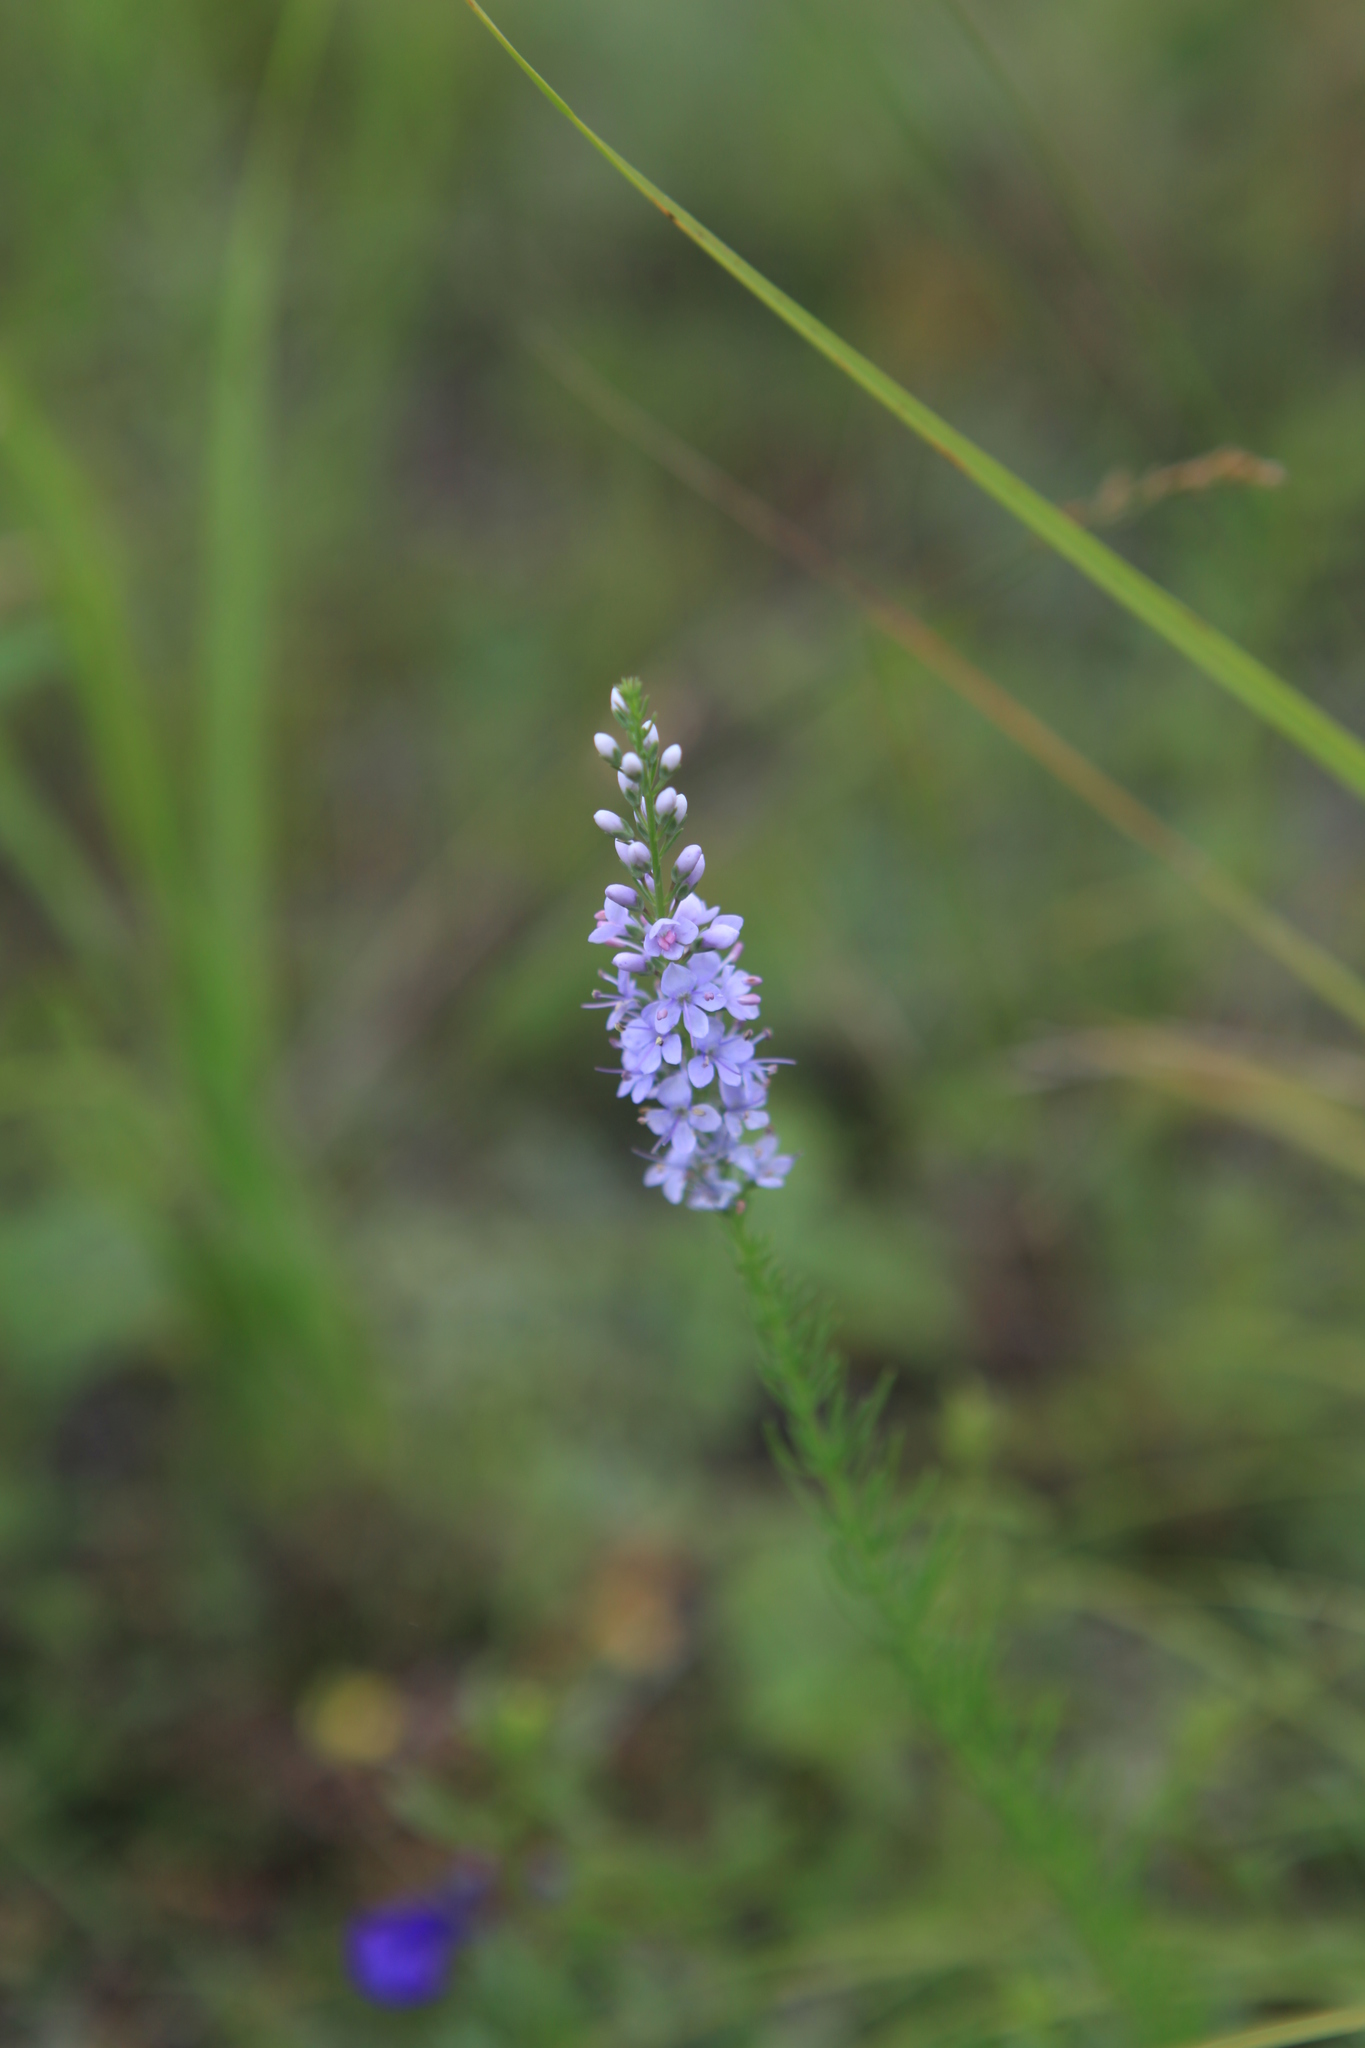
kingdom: Plantae
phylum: Tracheophyta
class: Magnoliopsida
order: Lamiales
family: Plantaginaceae
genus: Veronica
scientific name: Veronica pinnata
